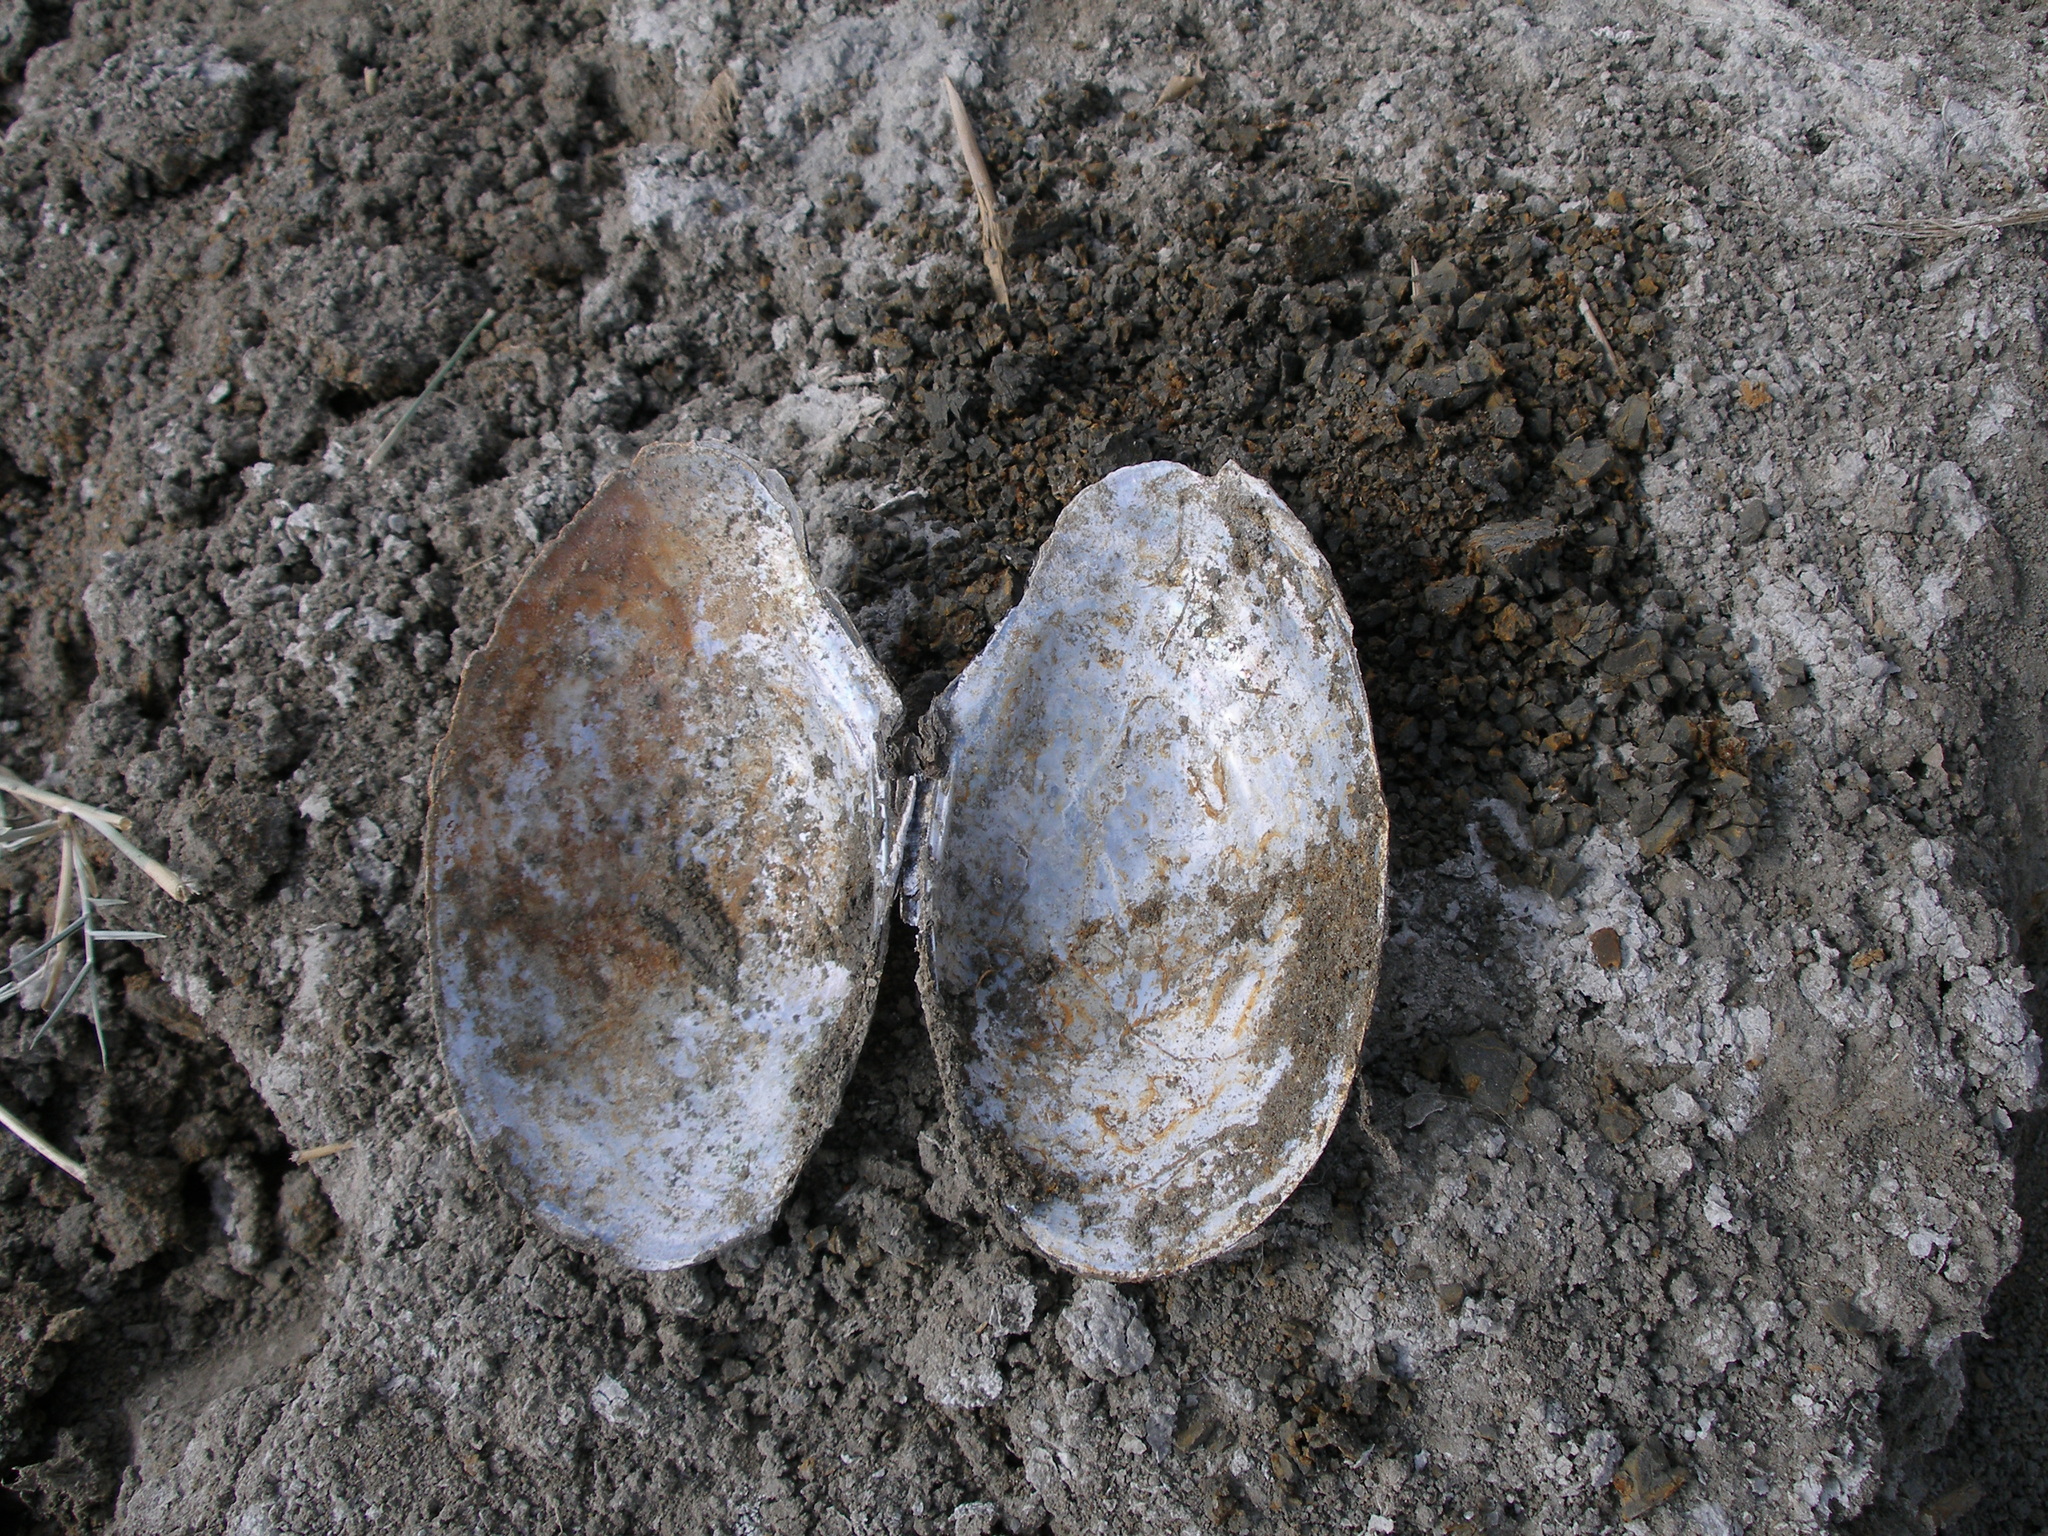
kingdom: Animalia
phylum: Mollusca
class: Bivalvia
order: Unionida
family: Unionidae
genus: Anodonta
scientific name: Anodonta anatina
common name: Duck mussel
